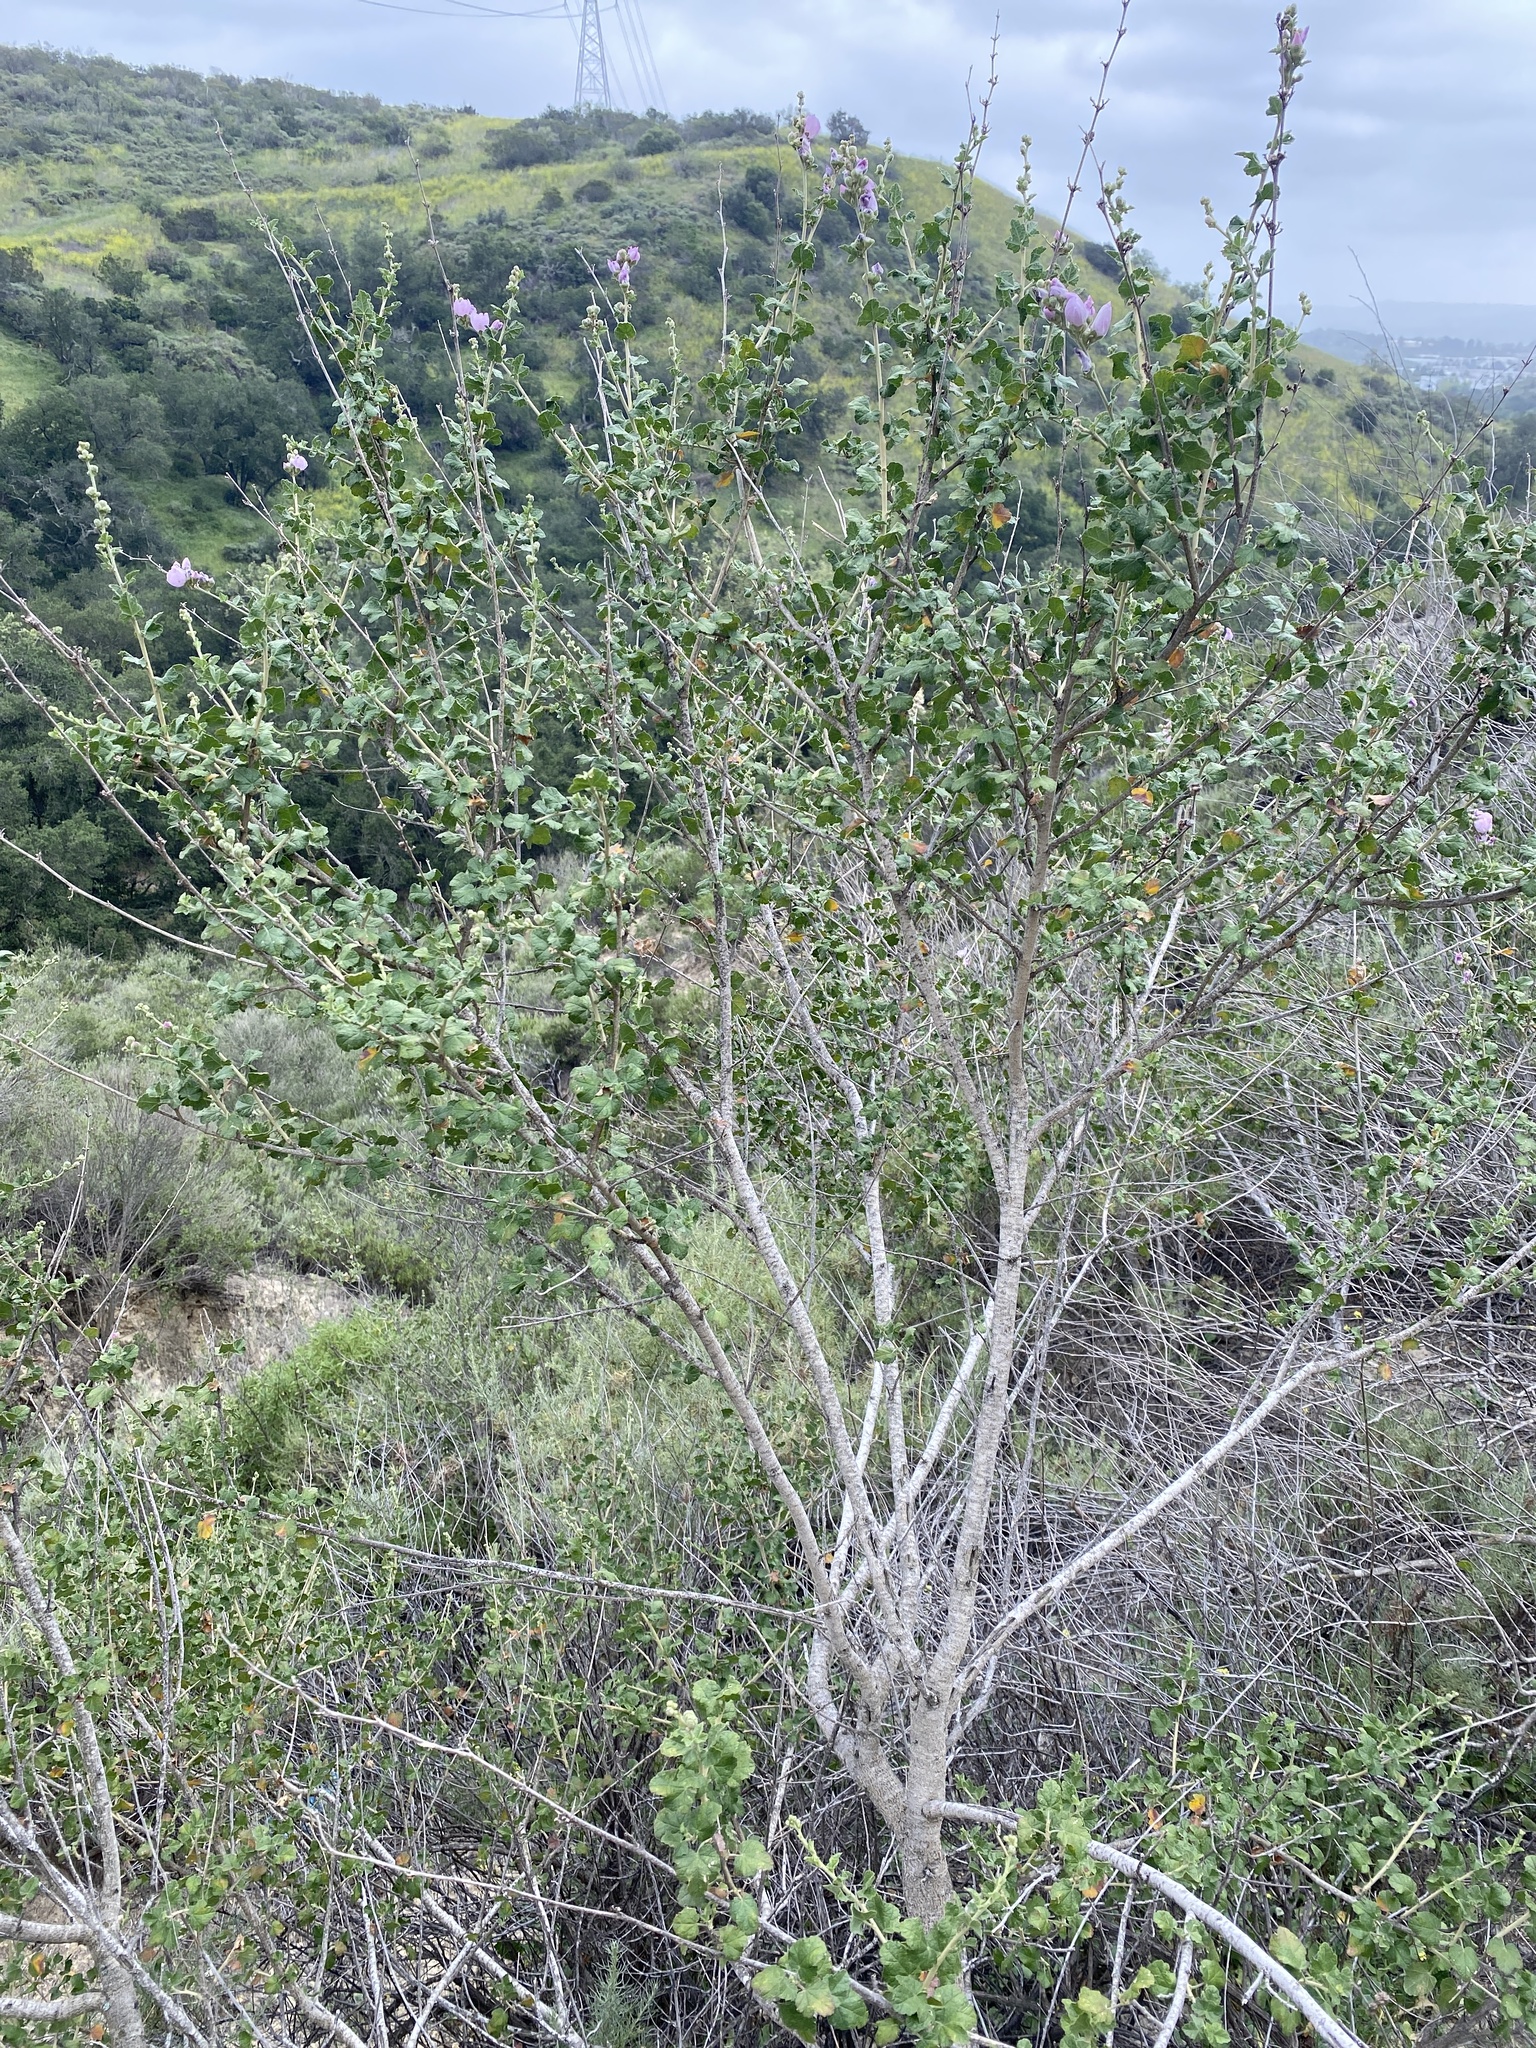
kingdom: Plantae
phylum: Tracheophyta
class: Magnoliopsida
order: Malvales
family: Malvaceae
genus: Malacothamnus
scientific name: Malacothamnus fasciculatus
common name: Sant cruz island bush-mallow
